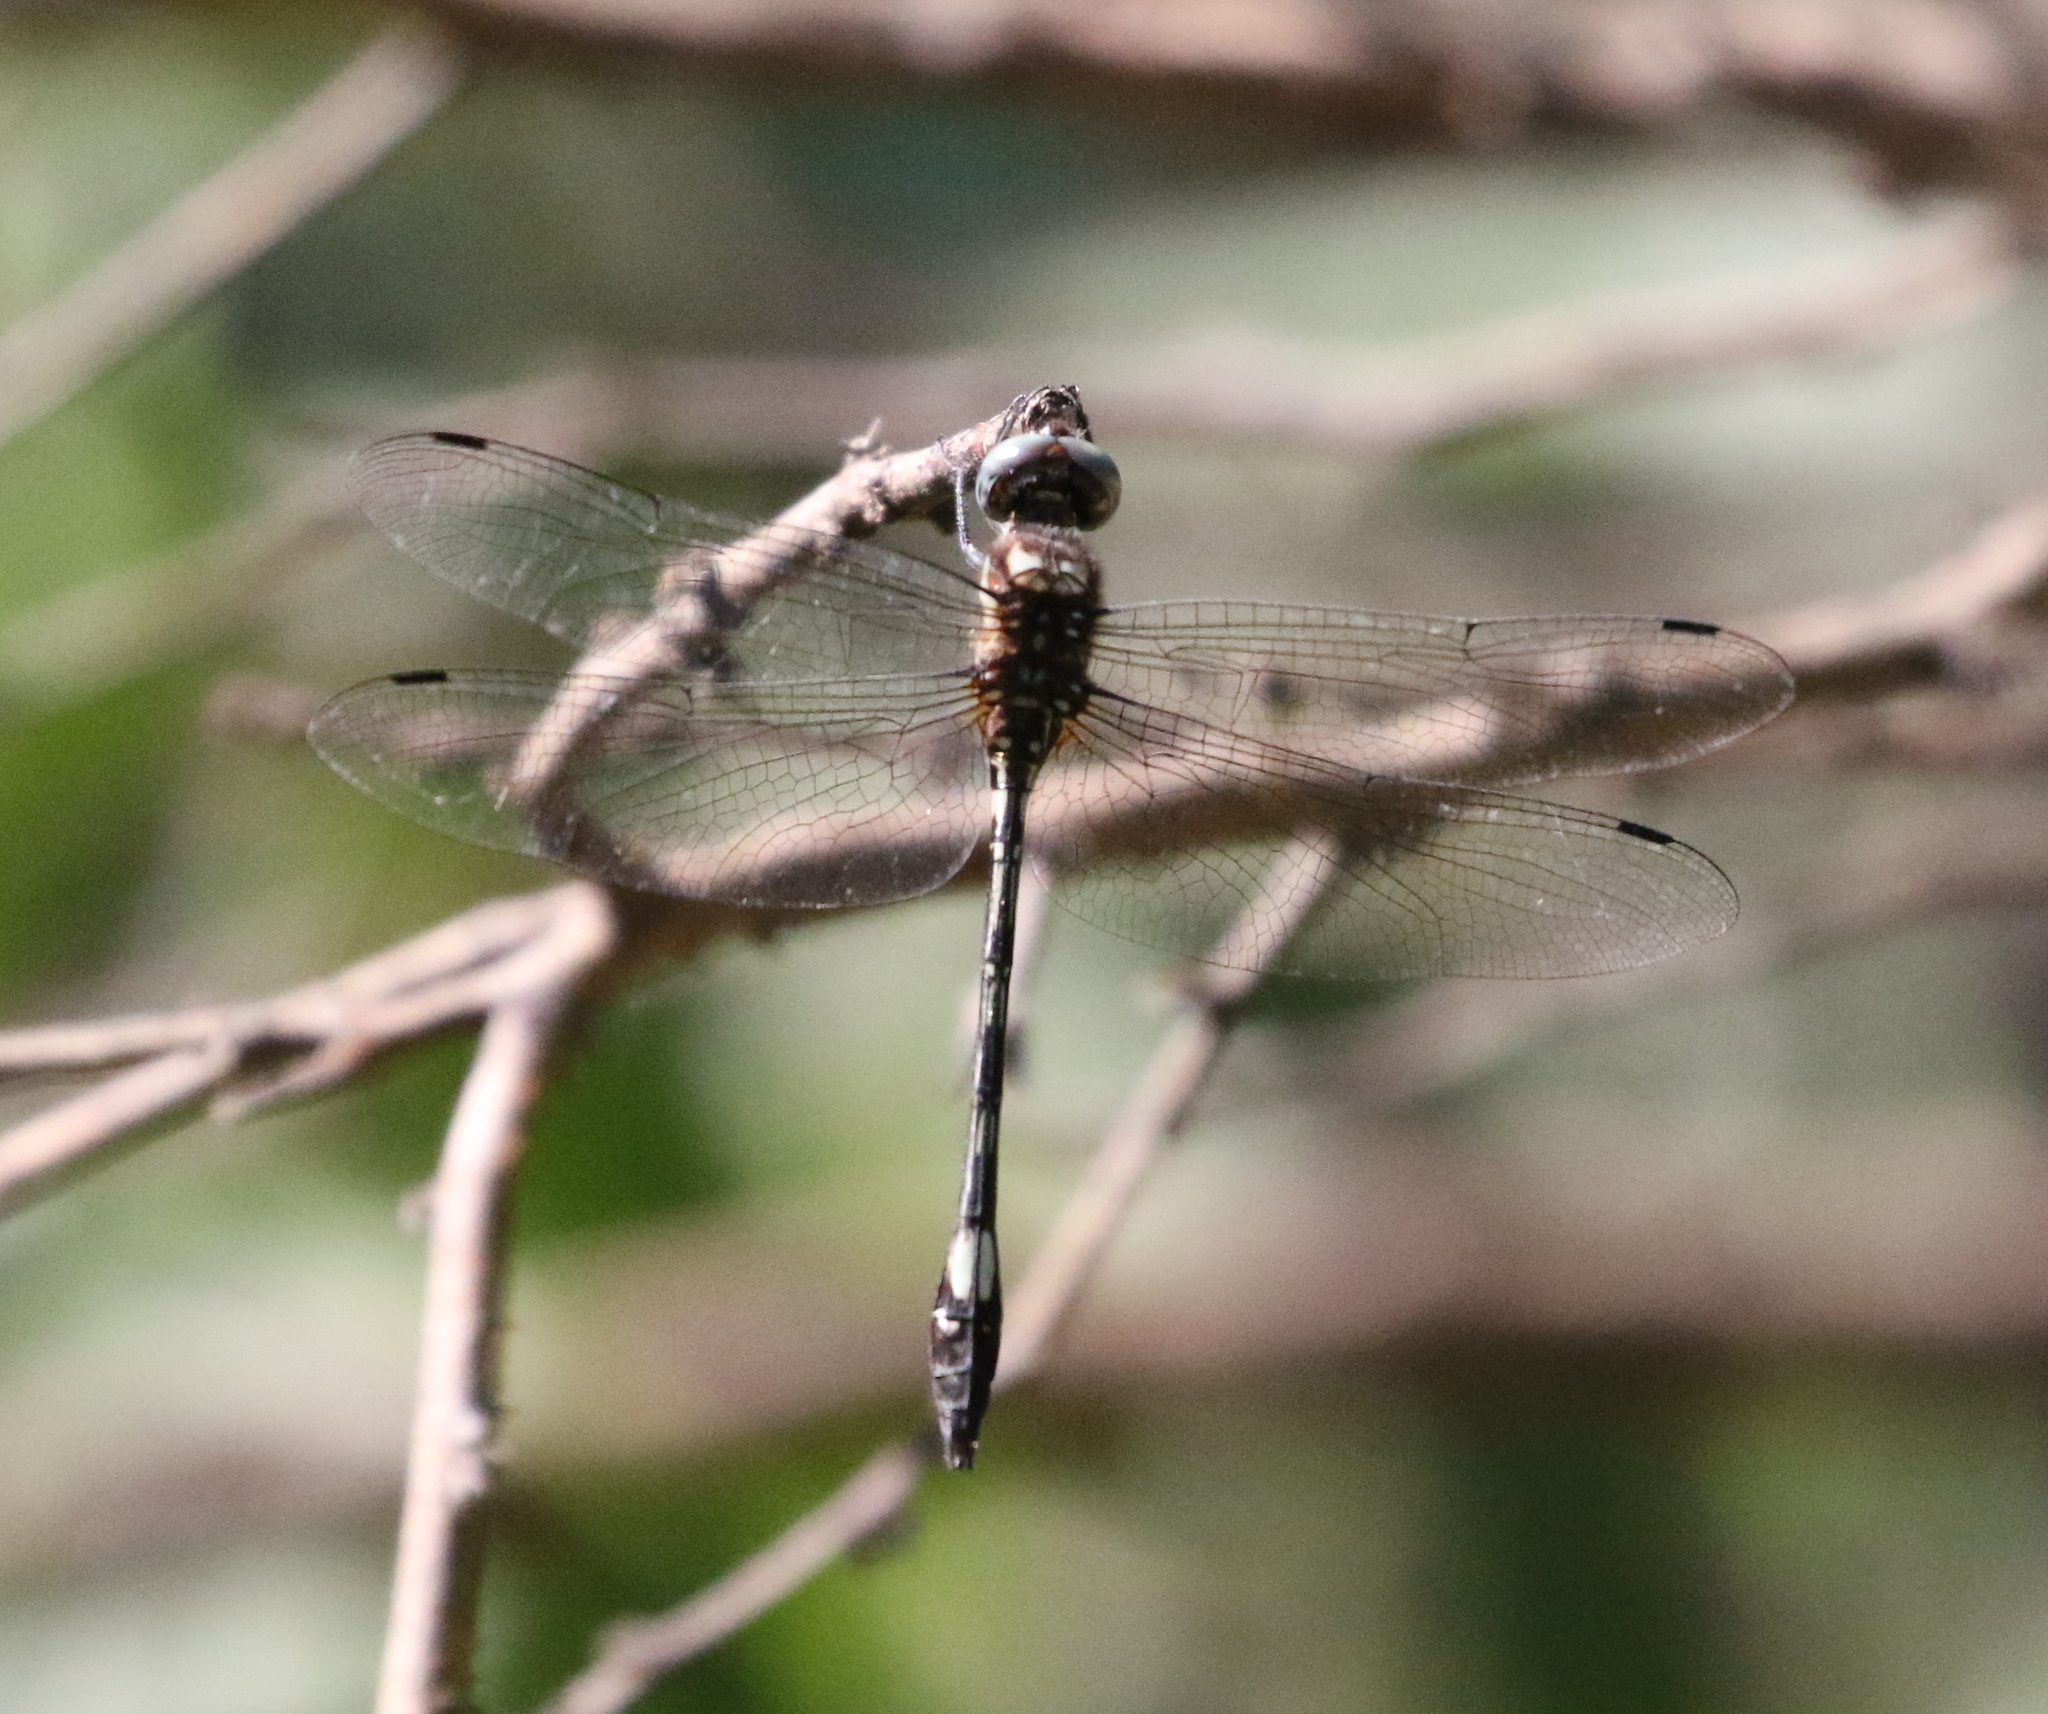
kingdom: Animalia
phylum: Arthropoda
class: Insecta
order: Odonata
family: Libellulidae
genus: Brechmorhoga
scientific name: Brechmorhoga mendax
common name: Pale-faced clubskimmer
